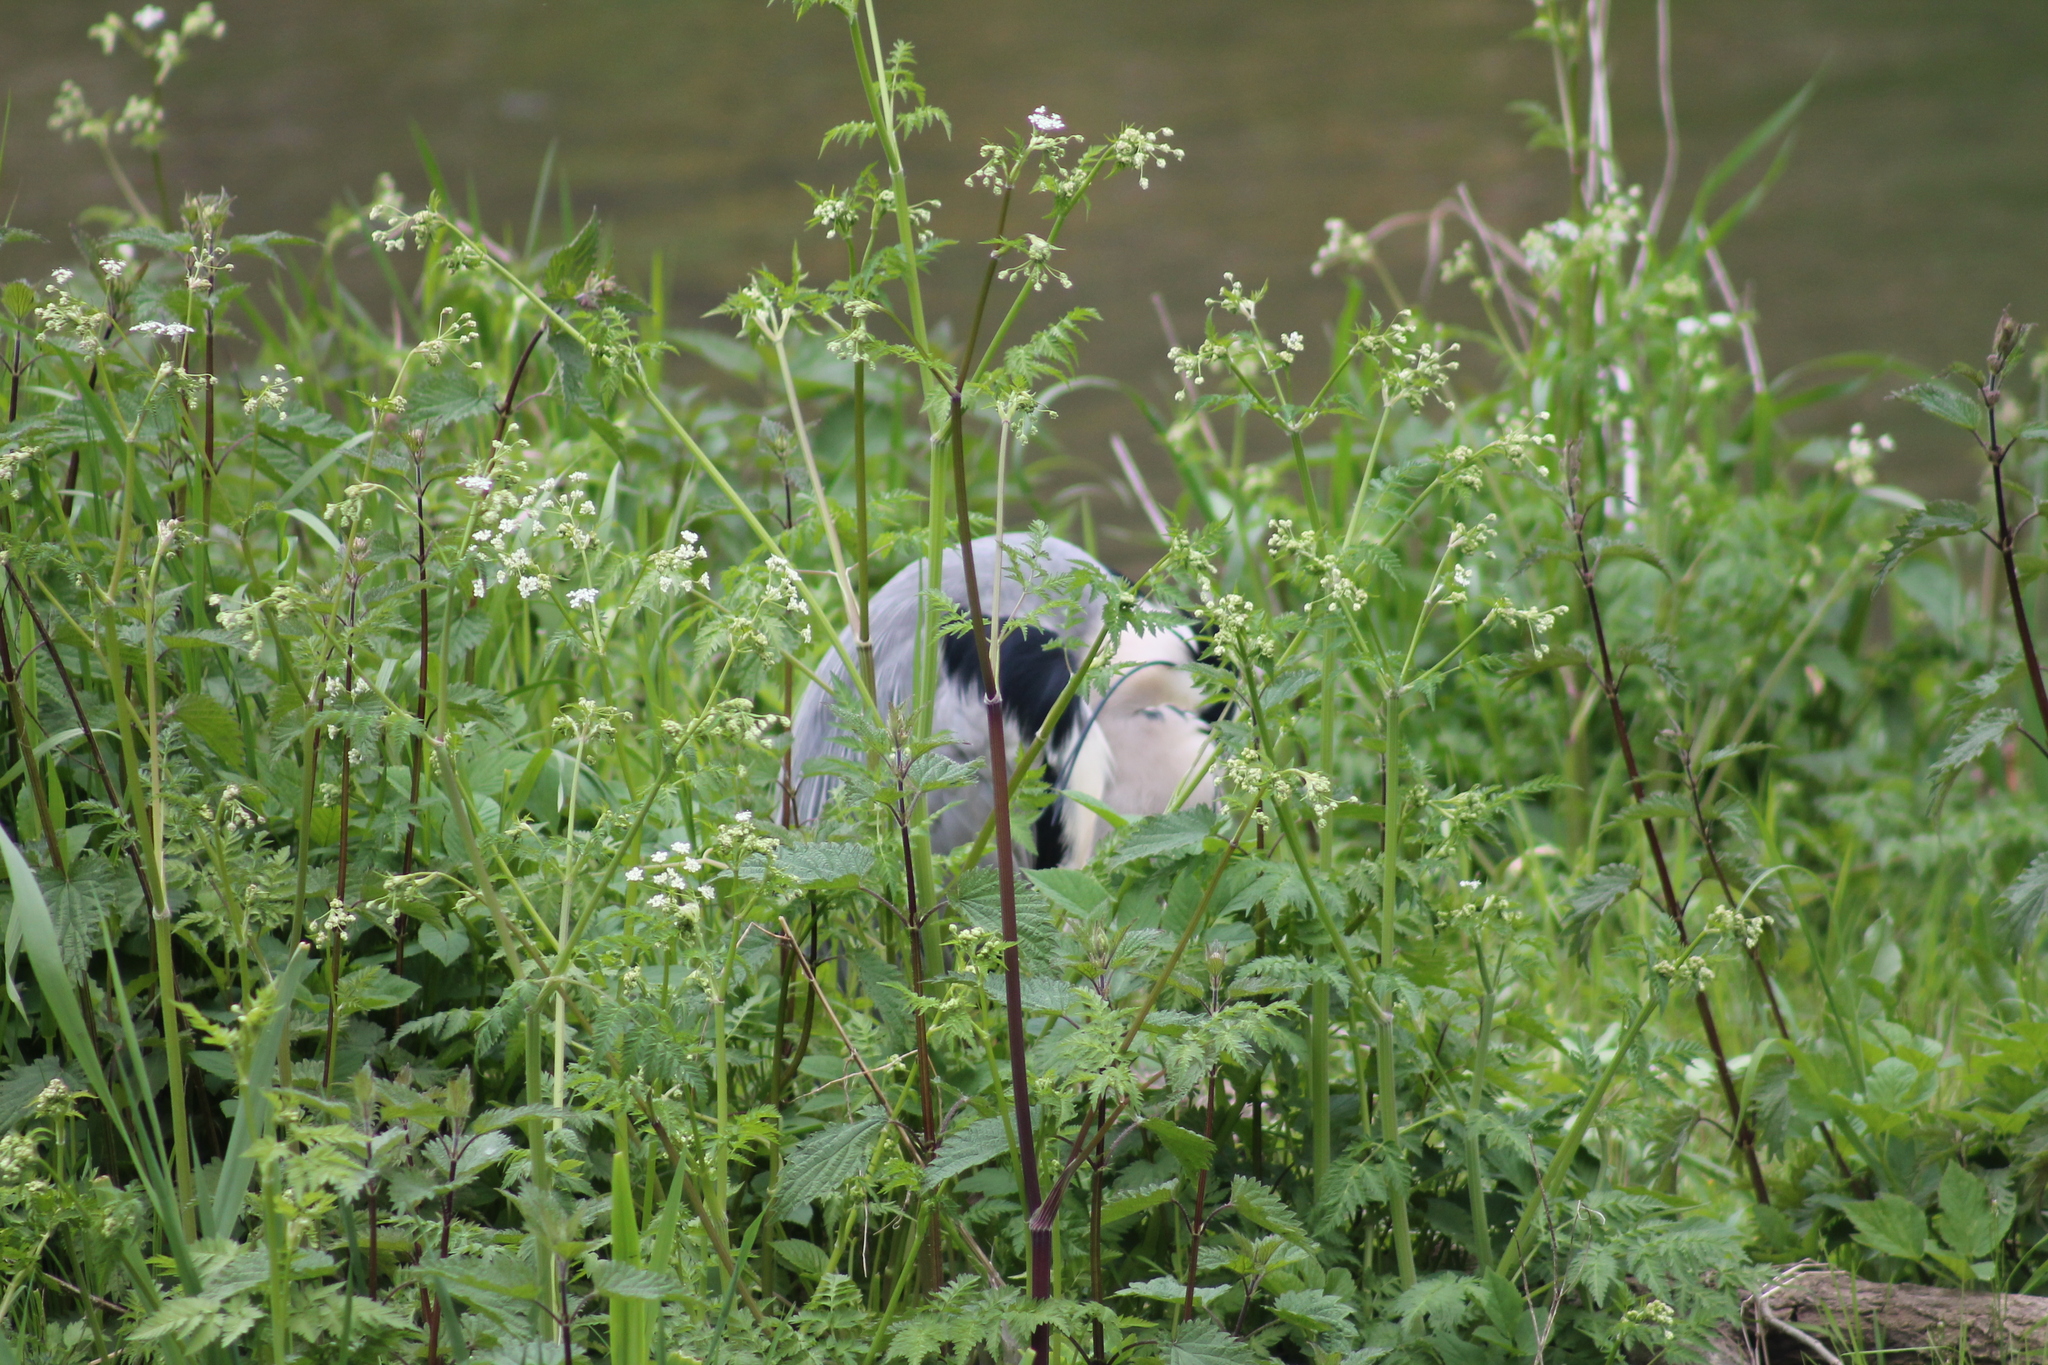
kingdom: Animalia
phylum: Chordata
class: Aves
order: Pelecaniformes
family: Ardeidae
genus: Ardea
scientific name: Ardea cinerea
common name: Grey heron
